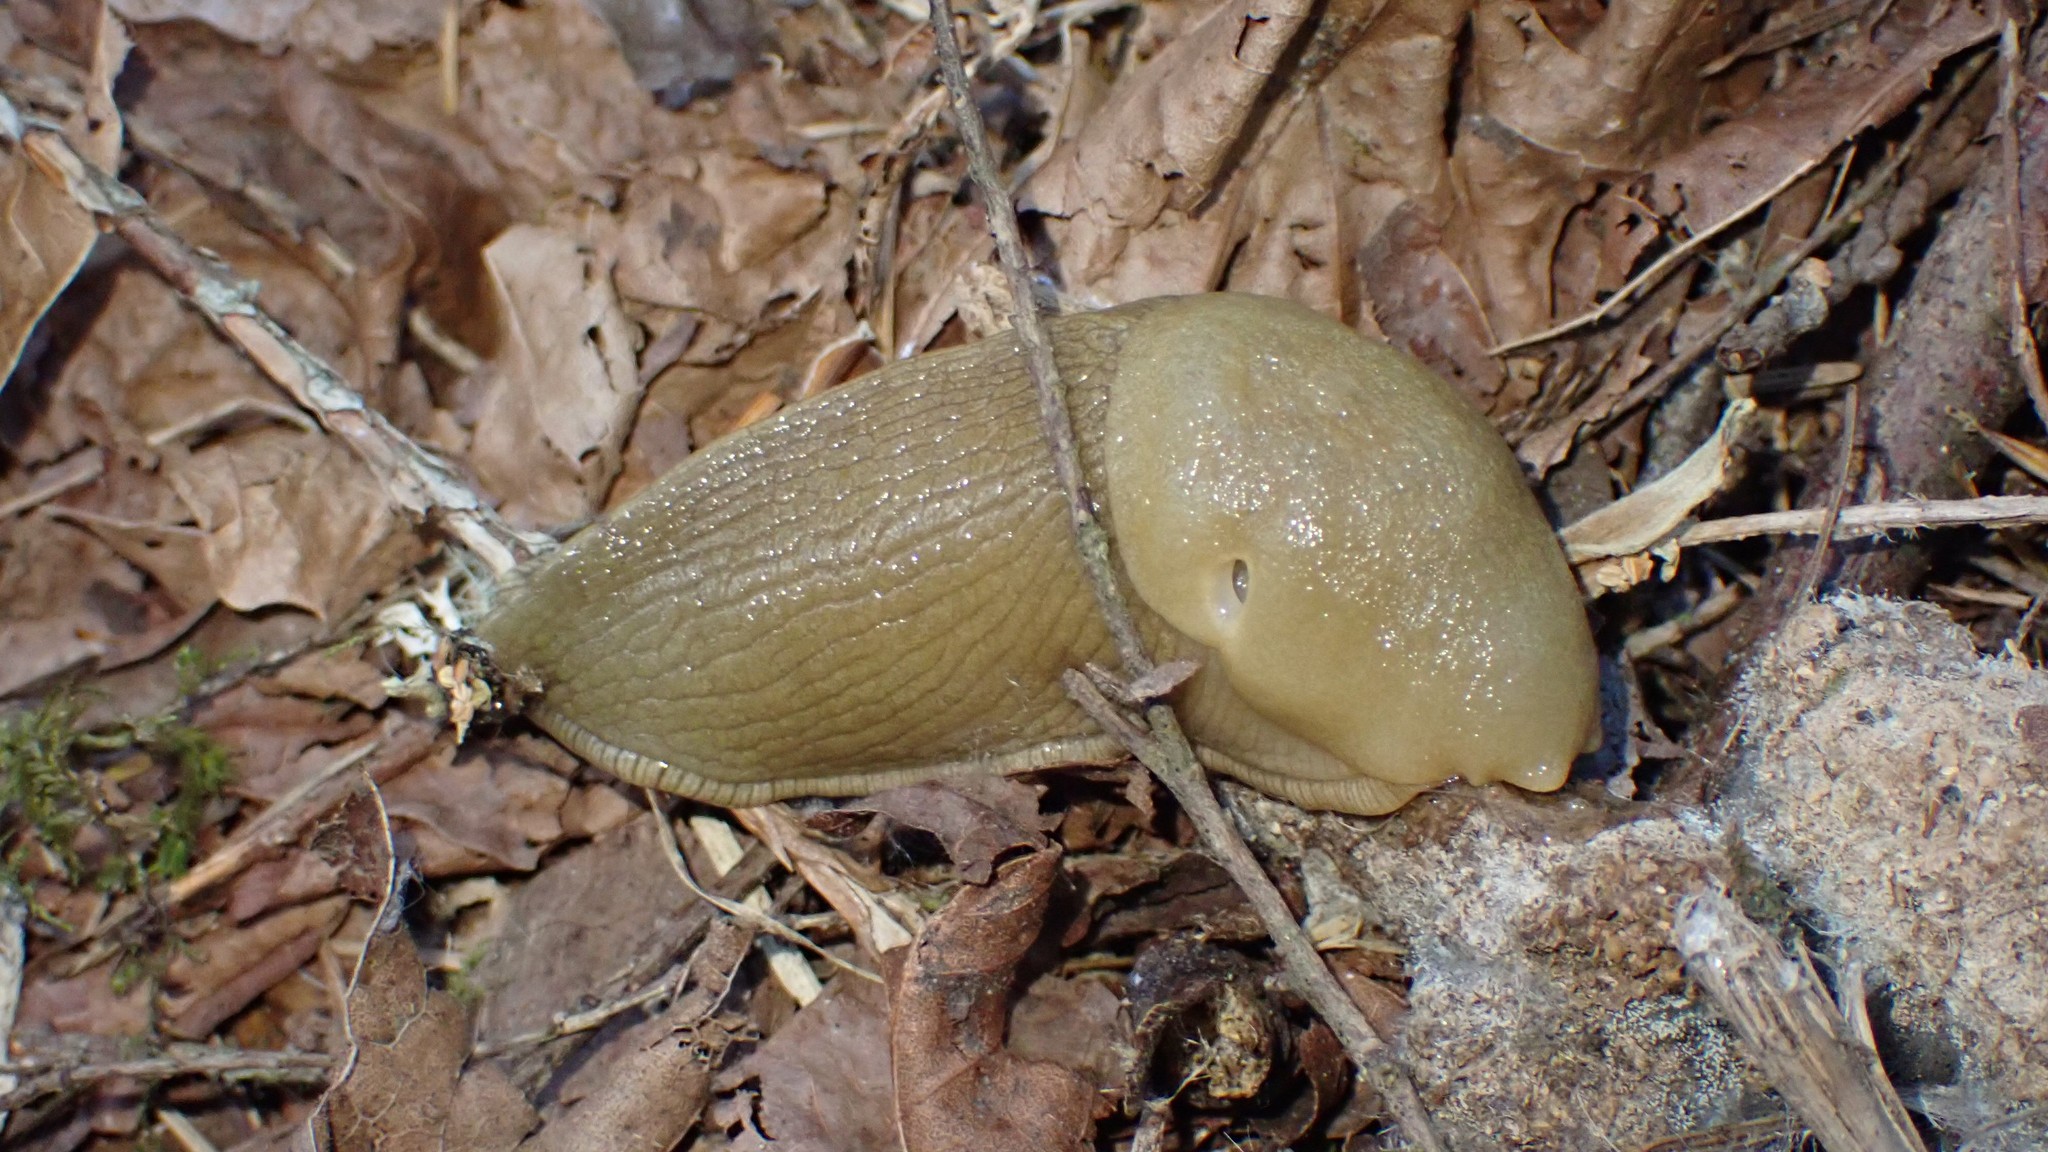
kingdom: Animalia
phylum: Mollusca
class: Gastropoda
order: Stylommatophora
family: Ariolimacidae
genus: Ariolimax
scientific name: Ariolimax columbianus
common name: Pacific banana slug
